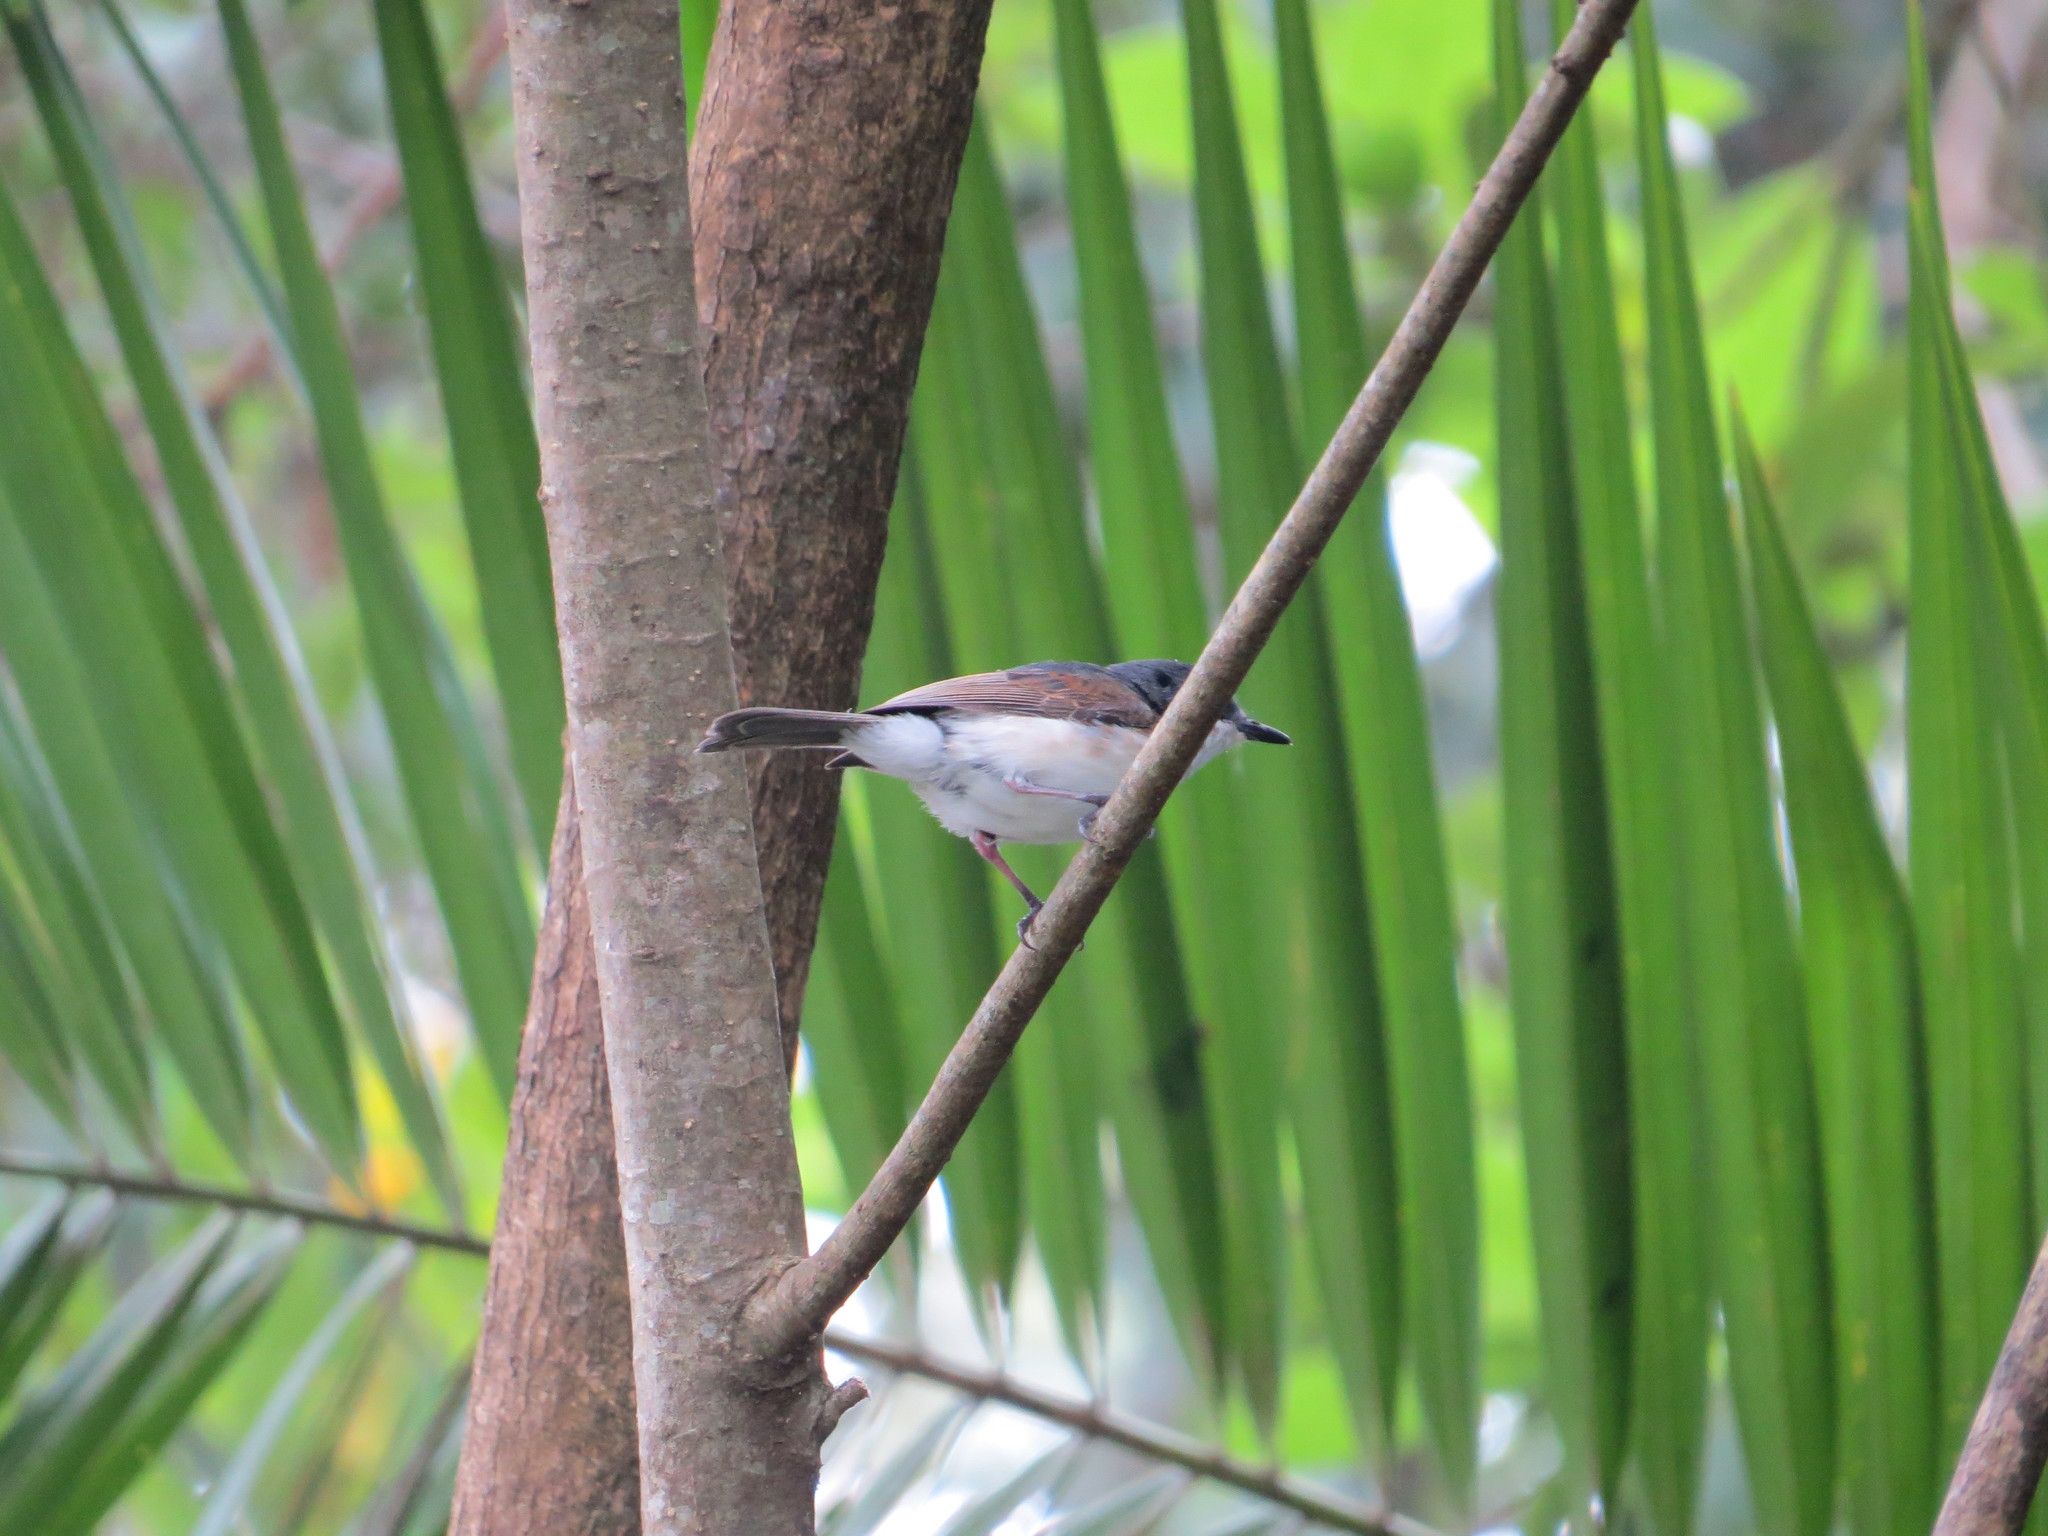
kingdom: Animalia
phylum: Chordata
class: Aves
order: Passeriformes
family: Platysteiridae
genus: Platysteira
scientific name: Platysteira peltata
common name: Black-throated wattle-eye
